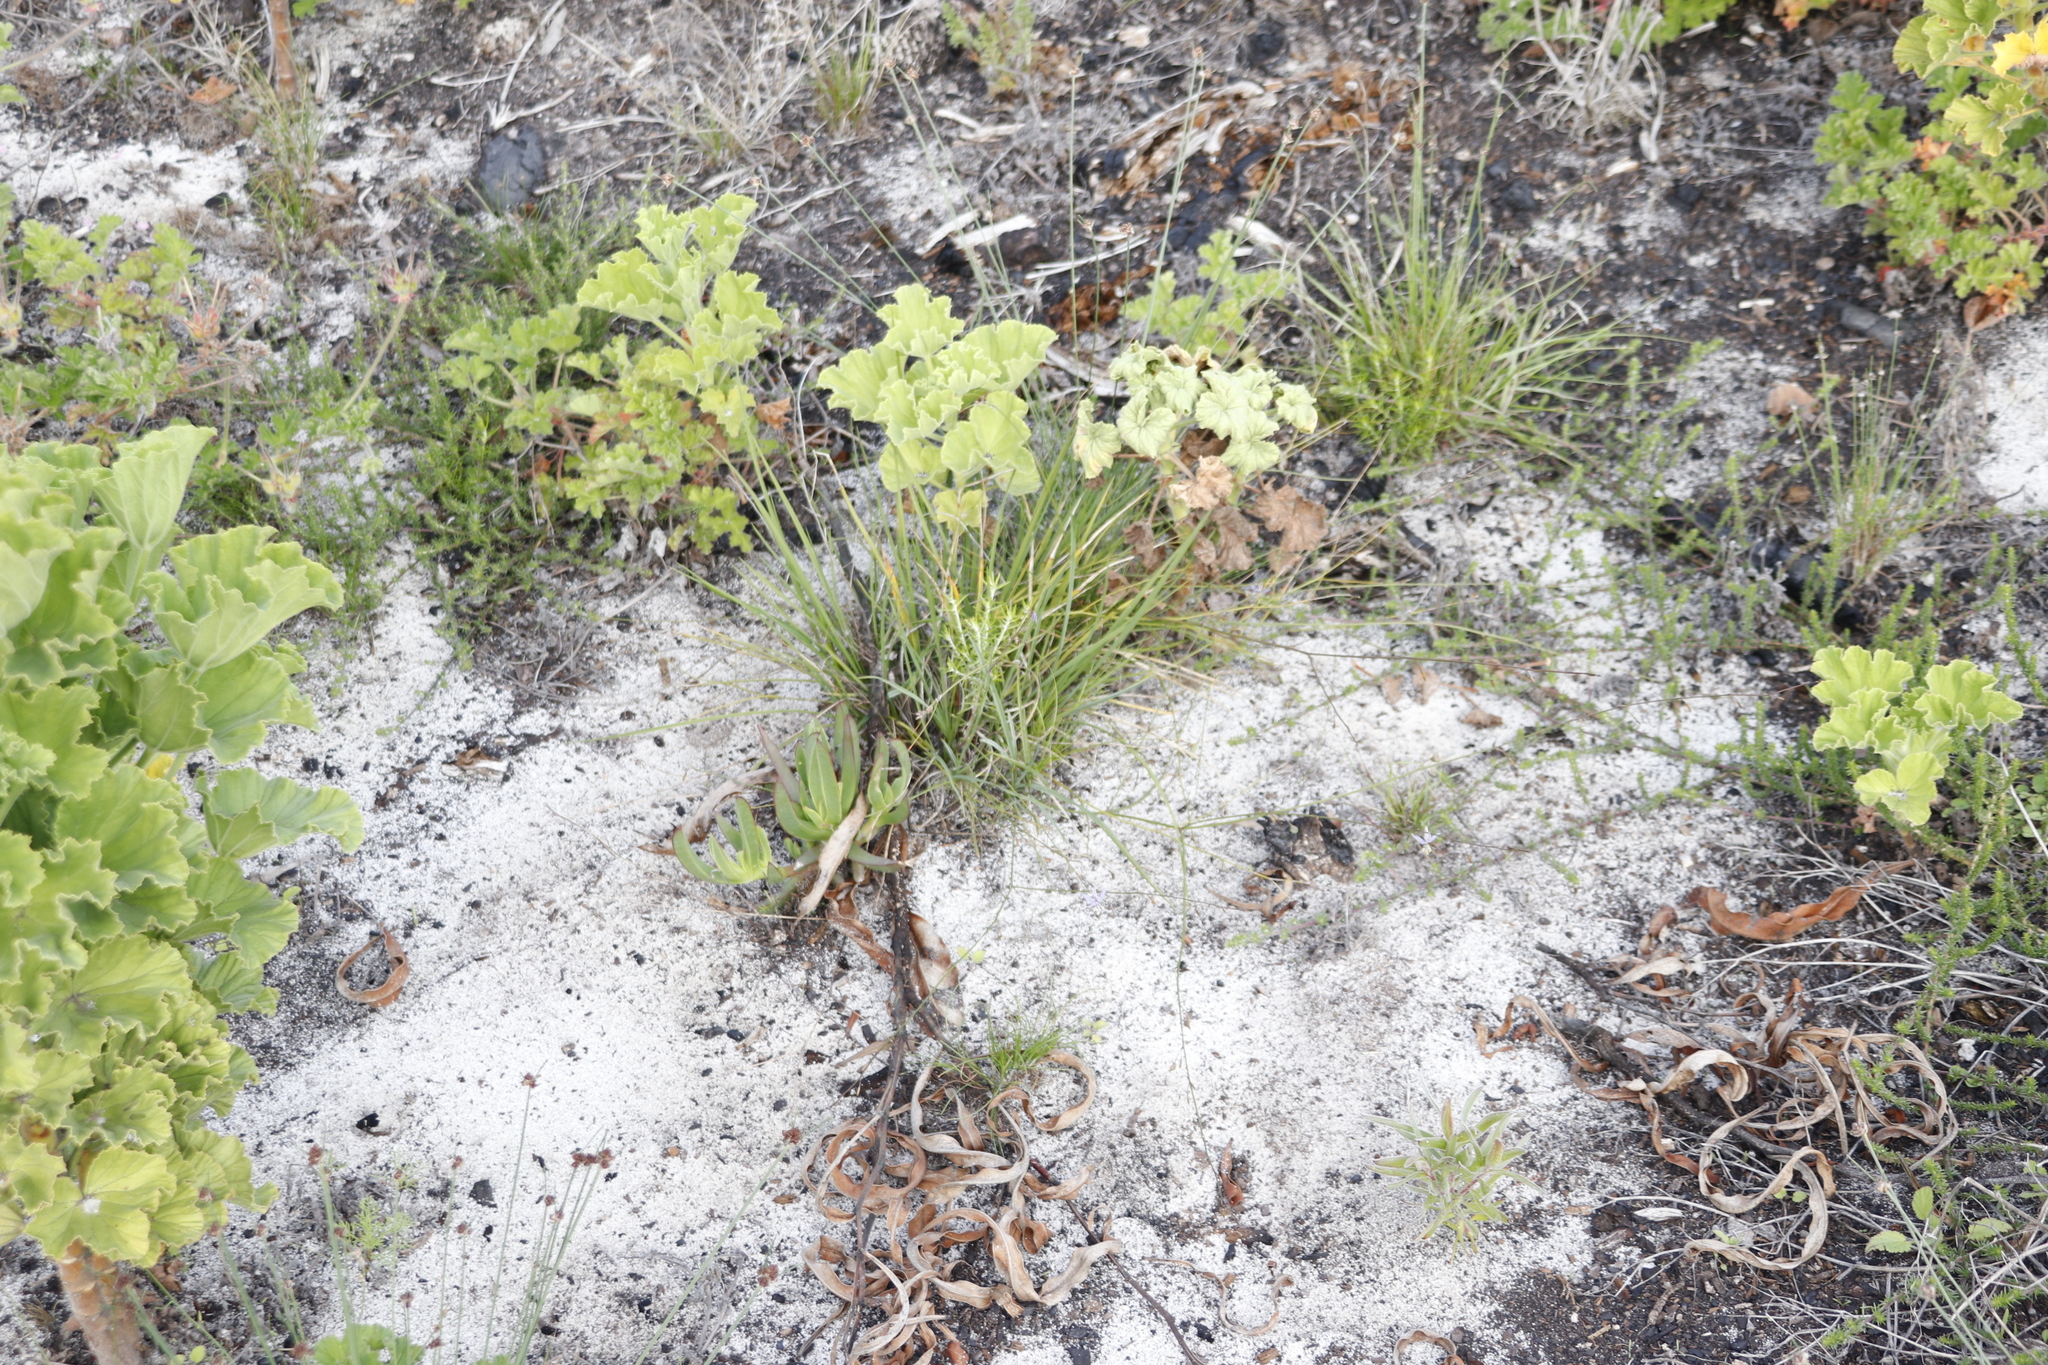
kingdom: Plantae
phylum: Tracheophyta
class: Liliopsida
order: Asparagales
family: Asphodelaceae
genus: Caesia
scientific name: Caesia contorta
